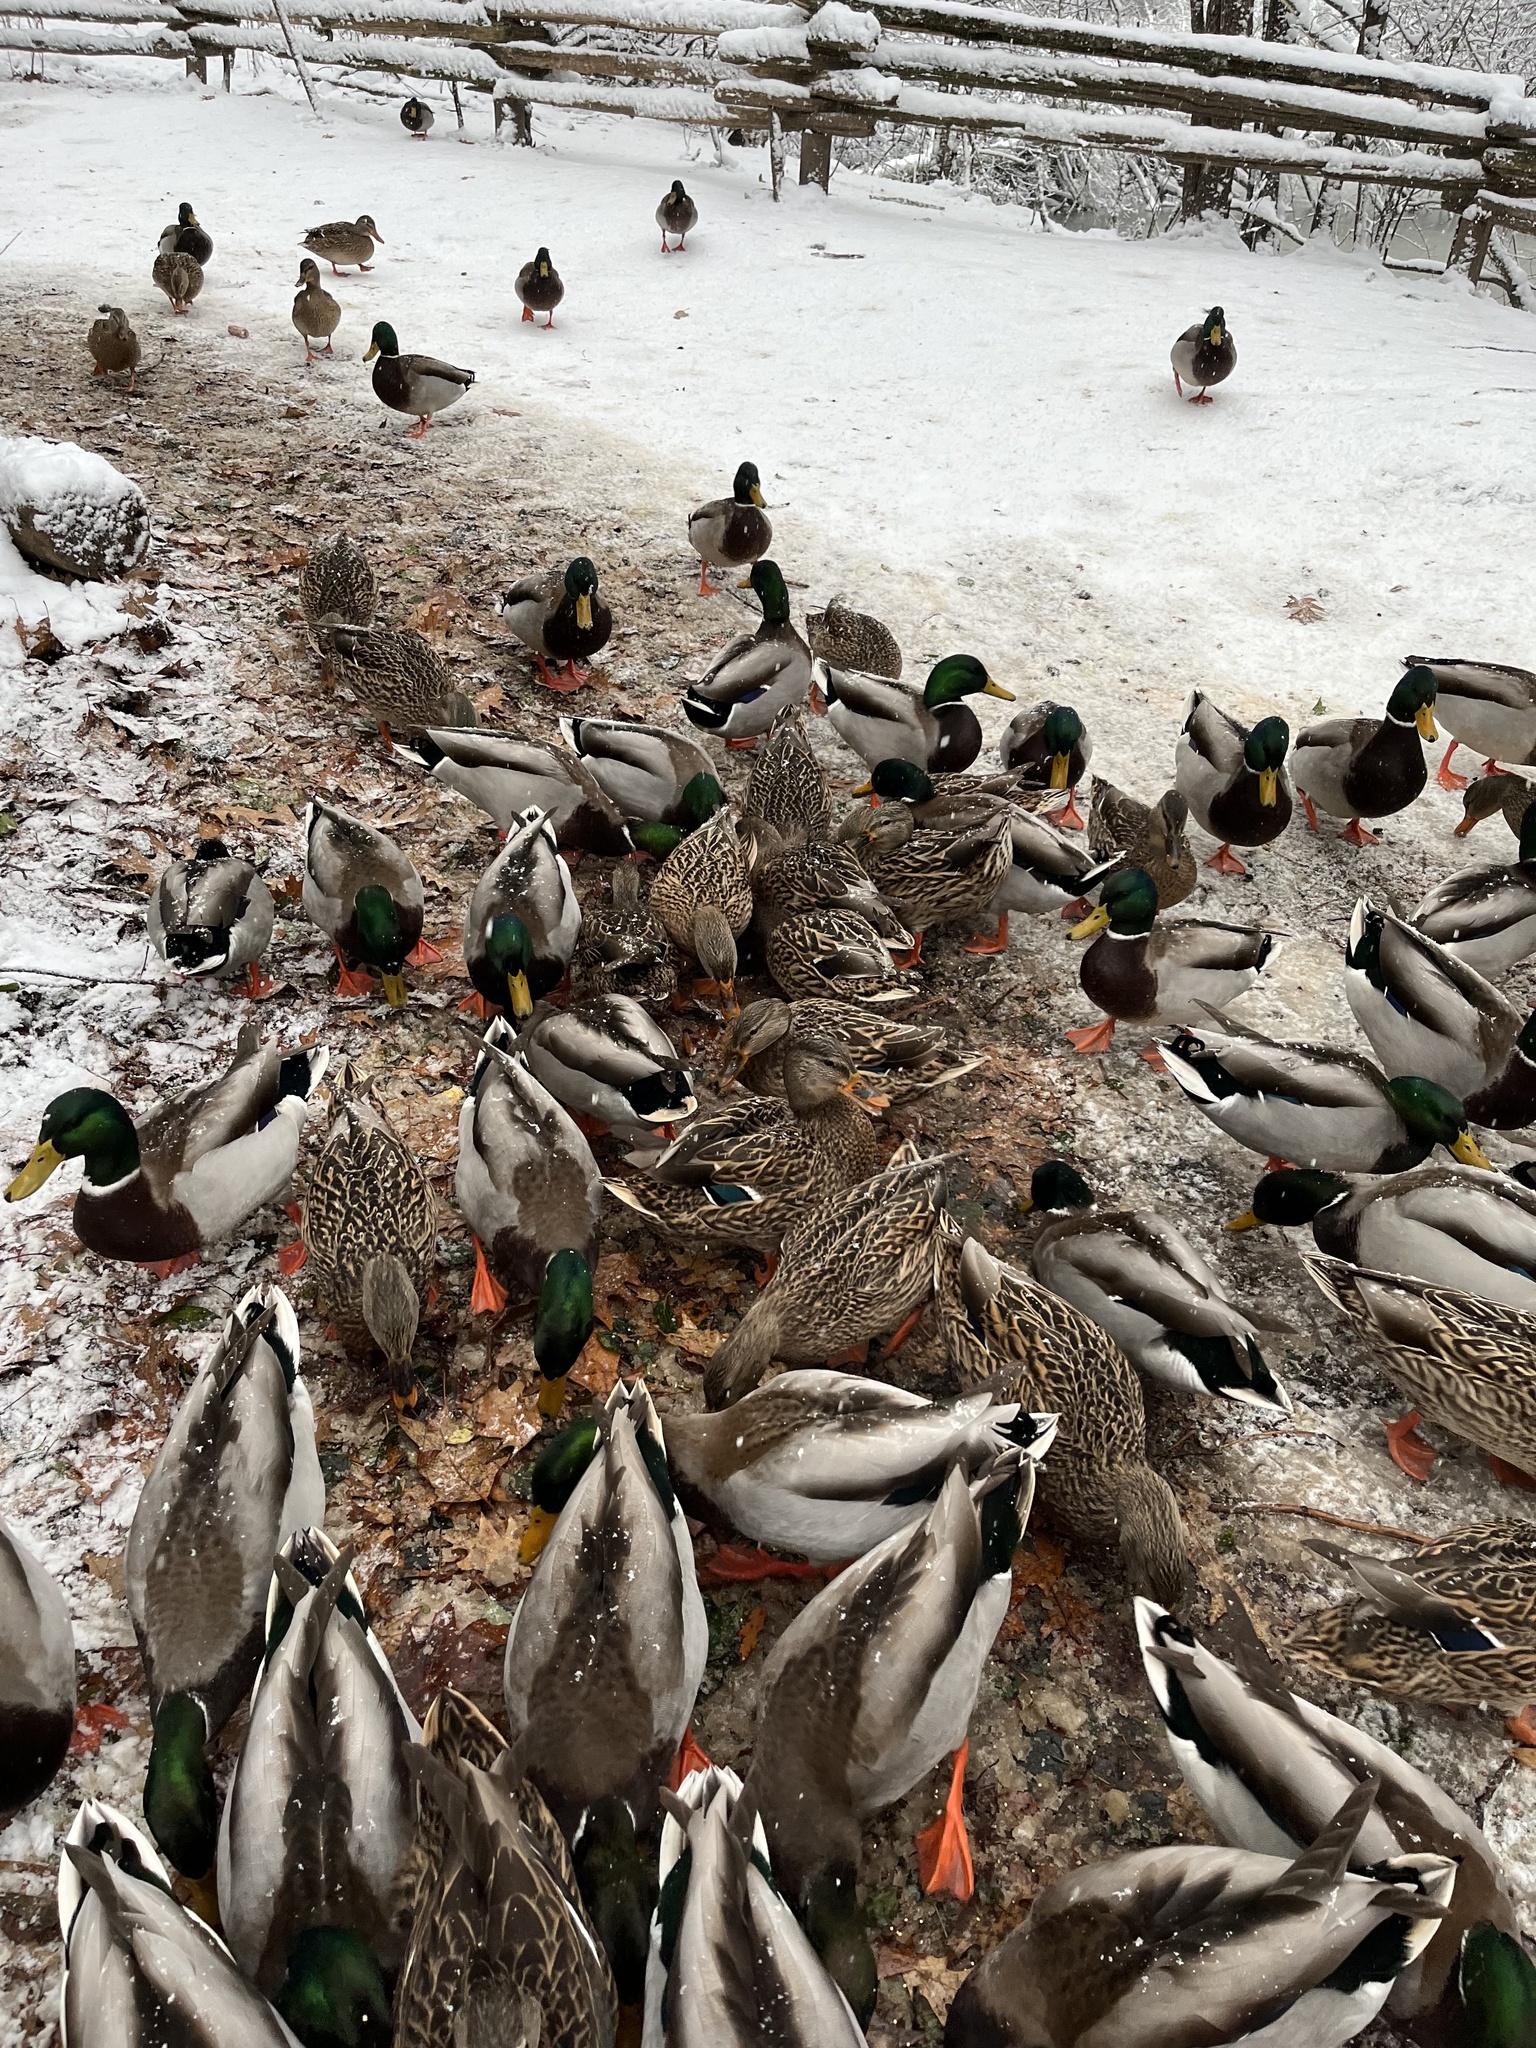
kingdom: Animalia
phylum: Chordata
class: Aves
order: Anseriformes
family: Anatidae
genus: Anas
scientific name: Anas platyrhynchos
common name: Mallard
